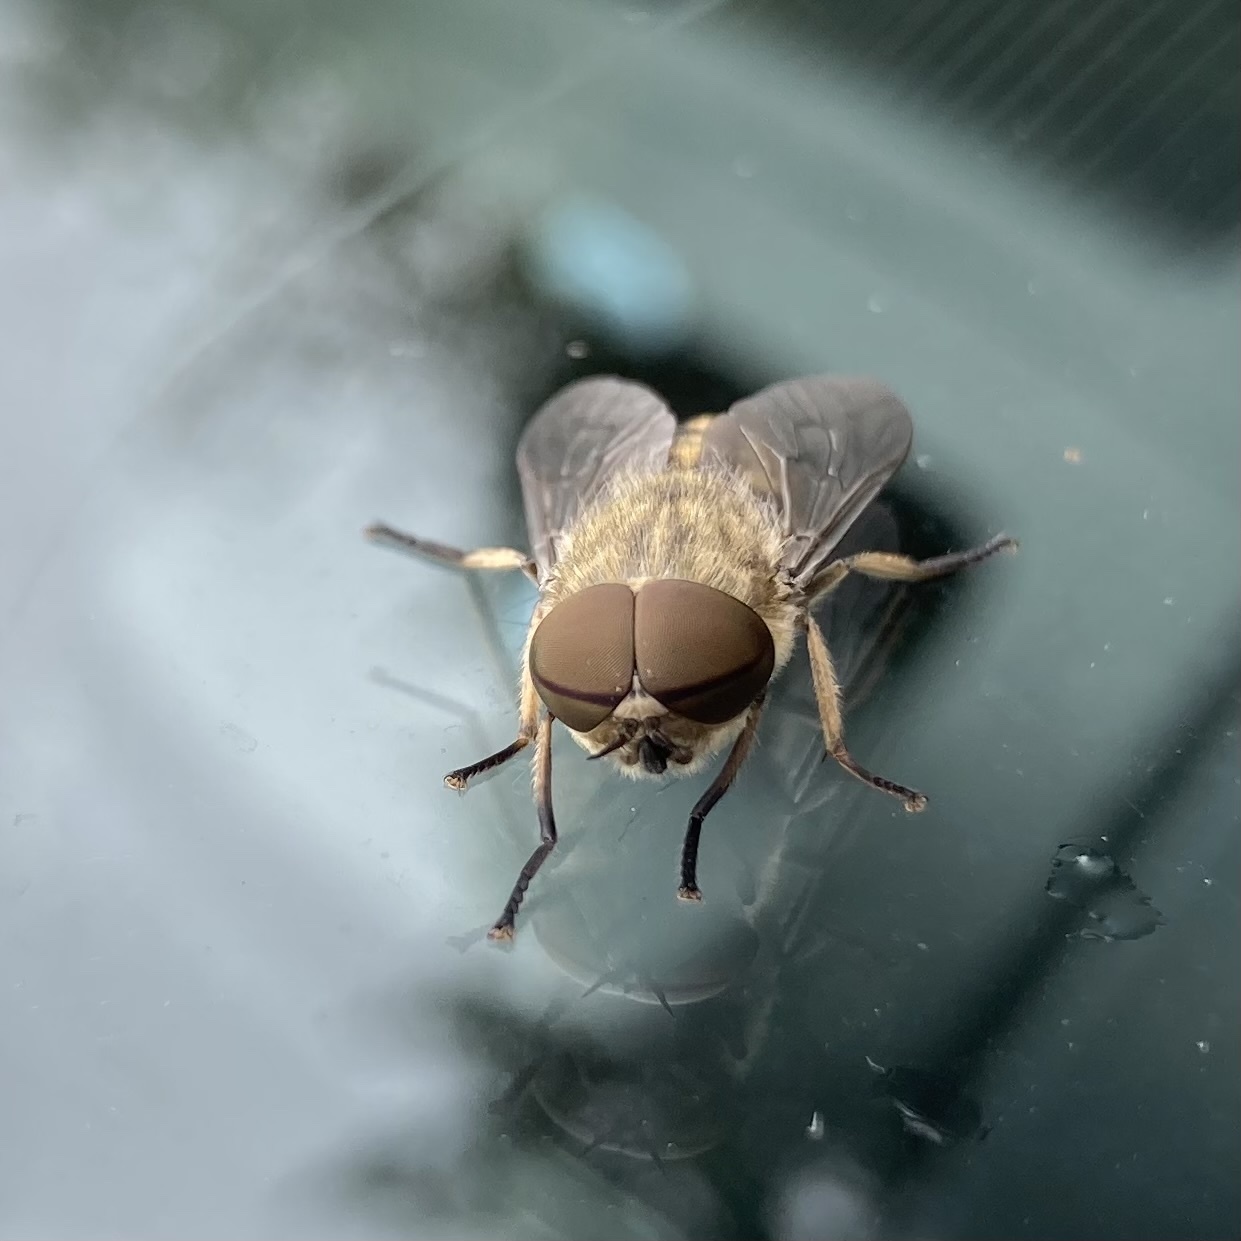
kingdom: Animalia
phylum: Arthropoda
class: Insecta
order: Diptera
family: Tabanidae
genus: Tabanus
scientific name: Tabanus bromius
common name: Band-eyed brown horsefly
